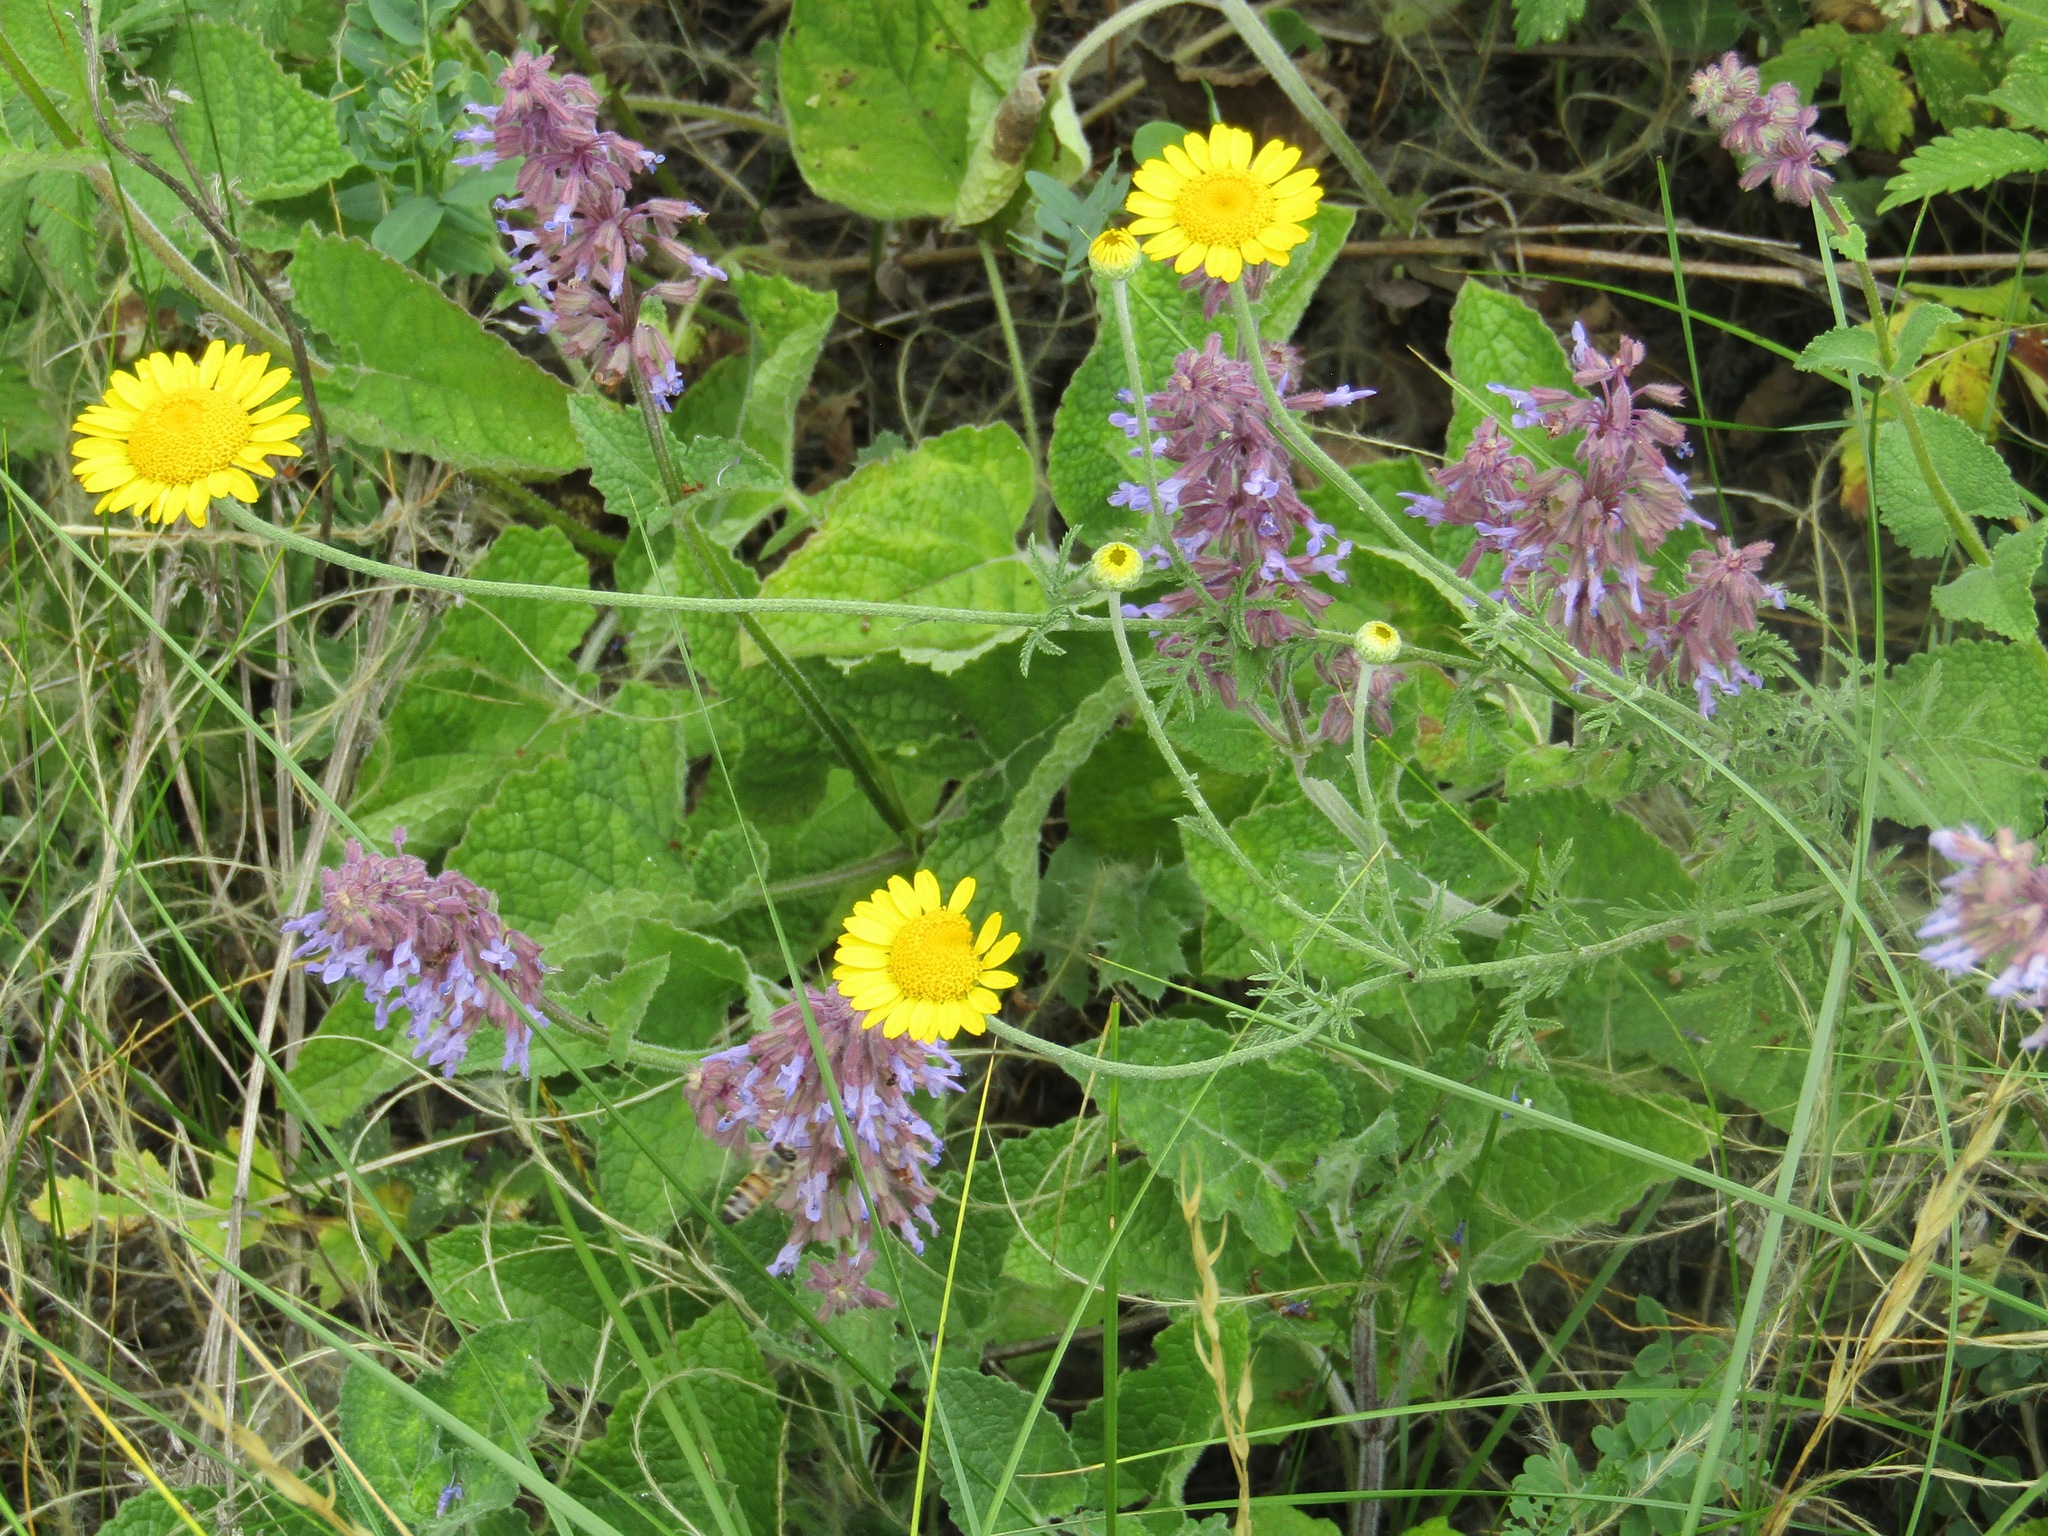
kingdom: Plantae
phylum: Tracheophyta
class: Magnoliopsida
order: Lamiales
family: Lamiaceae
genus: Salvia
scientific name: Salvia verticillata
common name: Whorled clary
